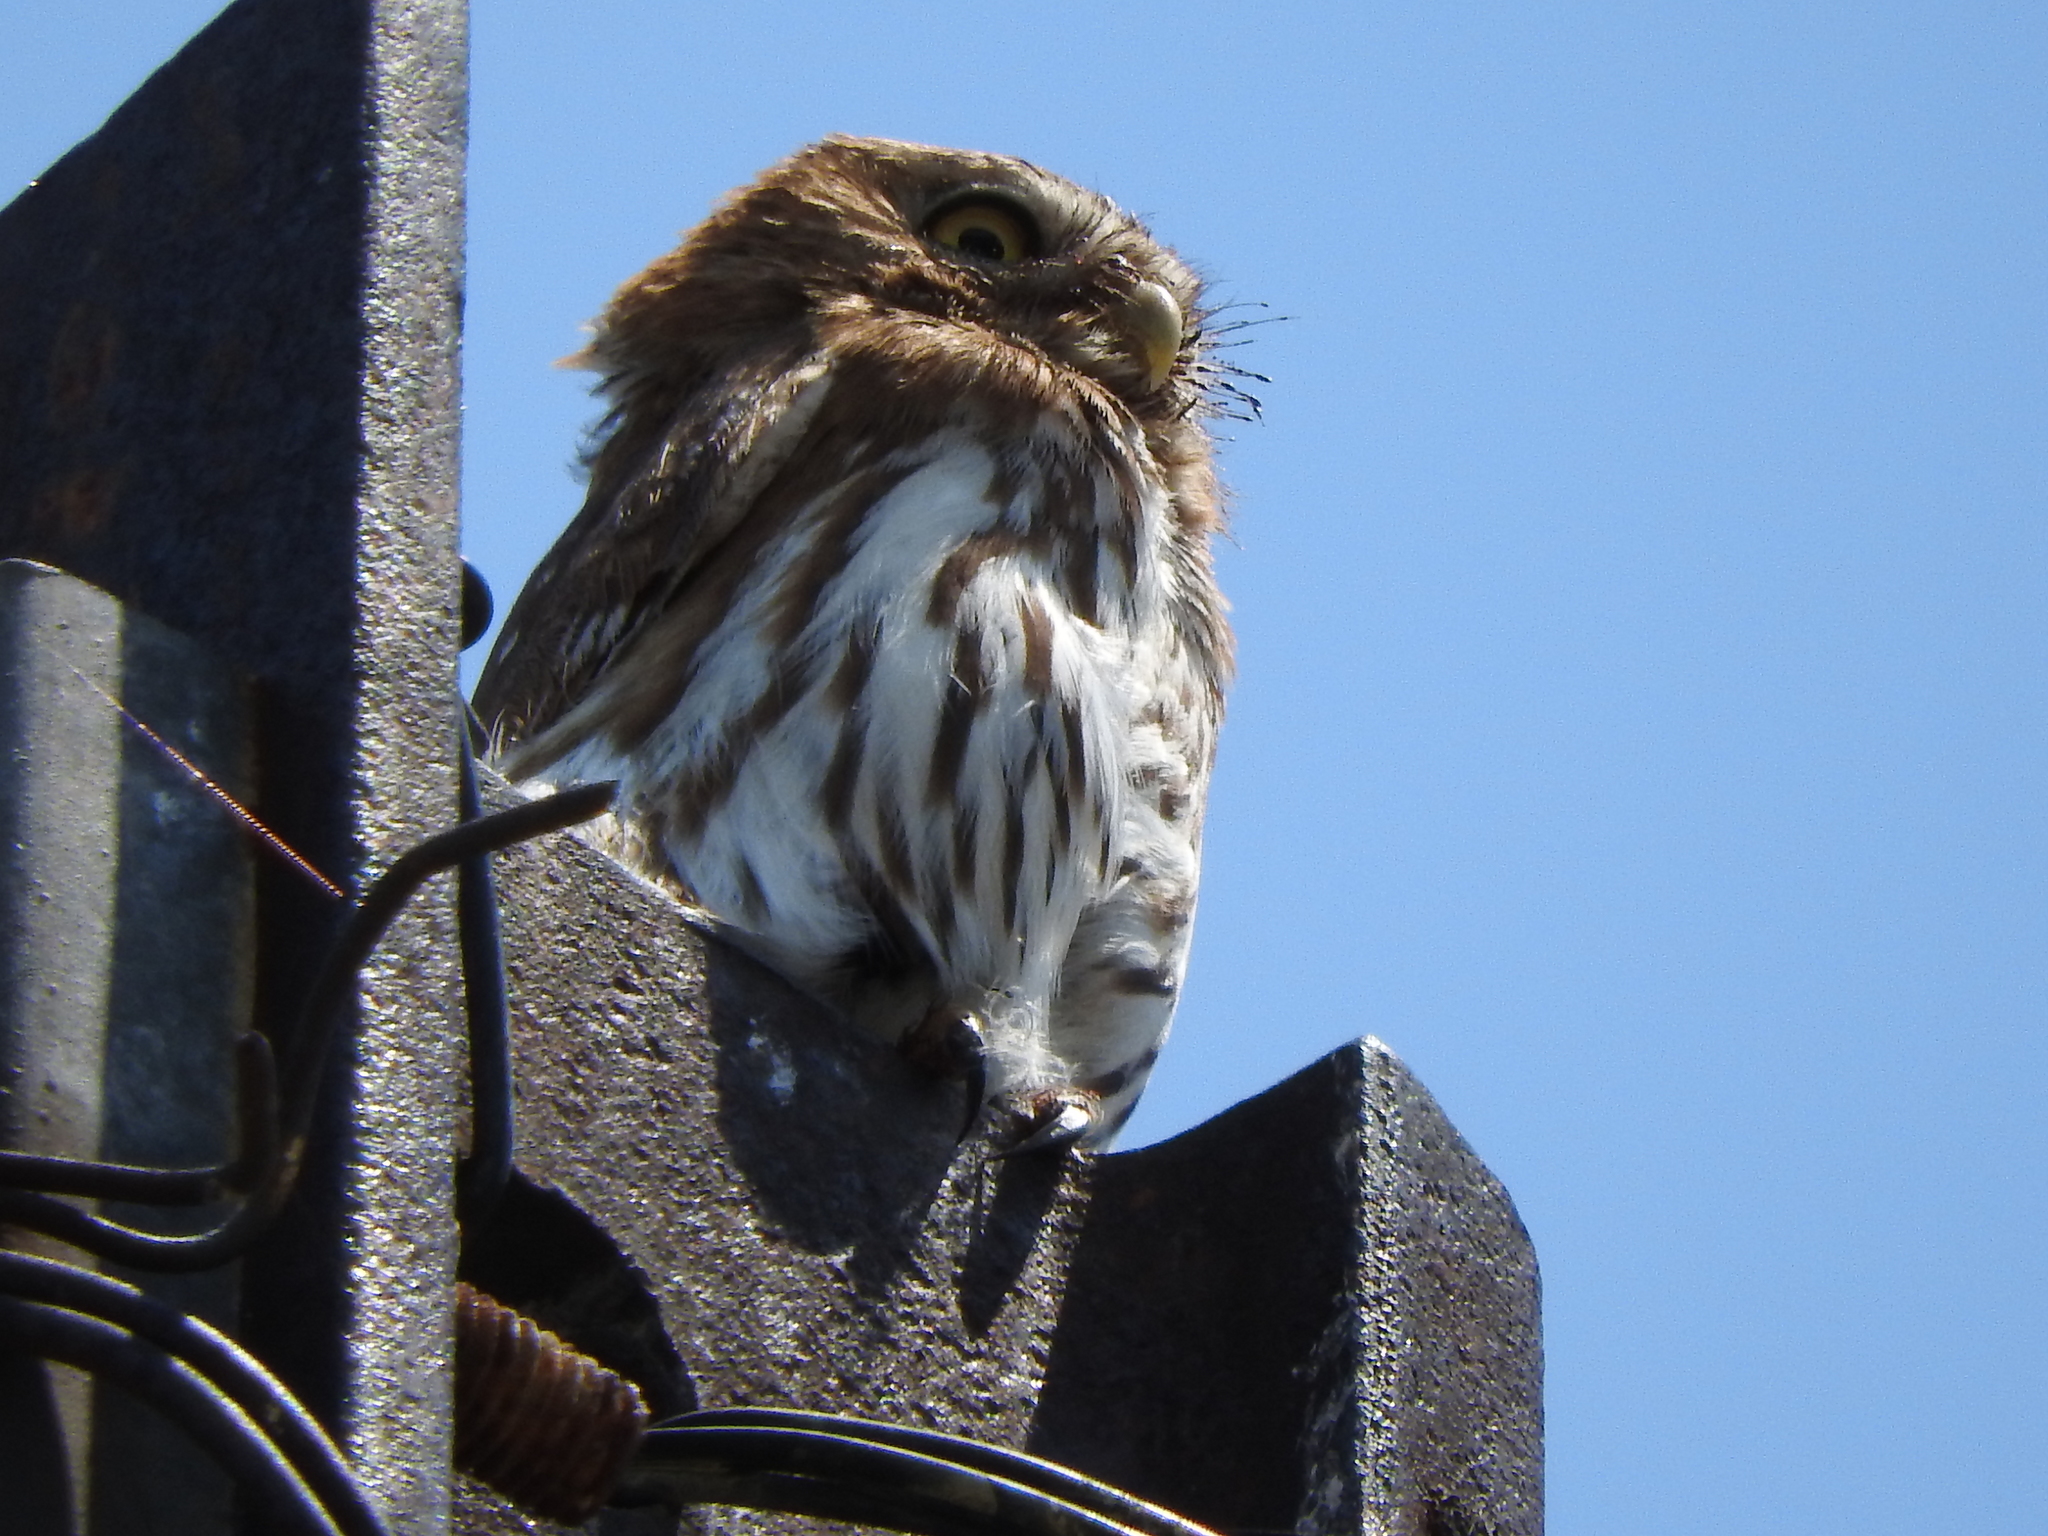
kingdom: Animalia
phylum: Chordata
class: Aves
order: Strigiformes
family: Strigidae
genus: Glaucidium
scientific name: Glaucidium brasilianum
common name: Ferruginous pygmy-owl
